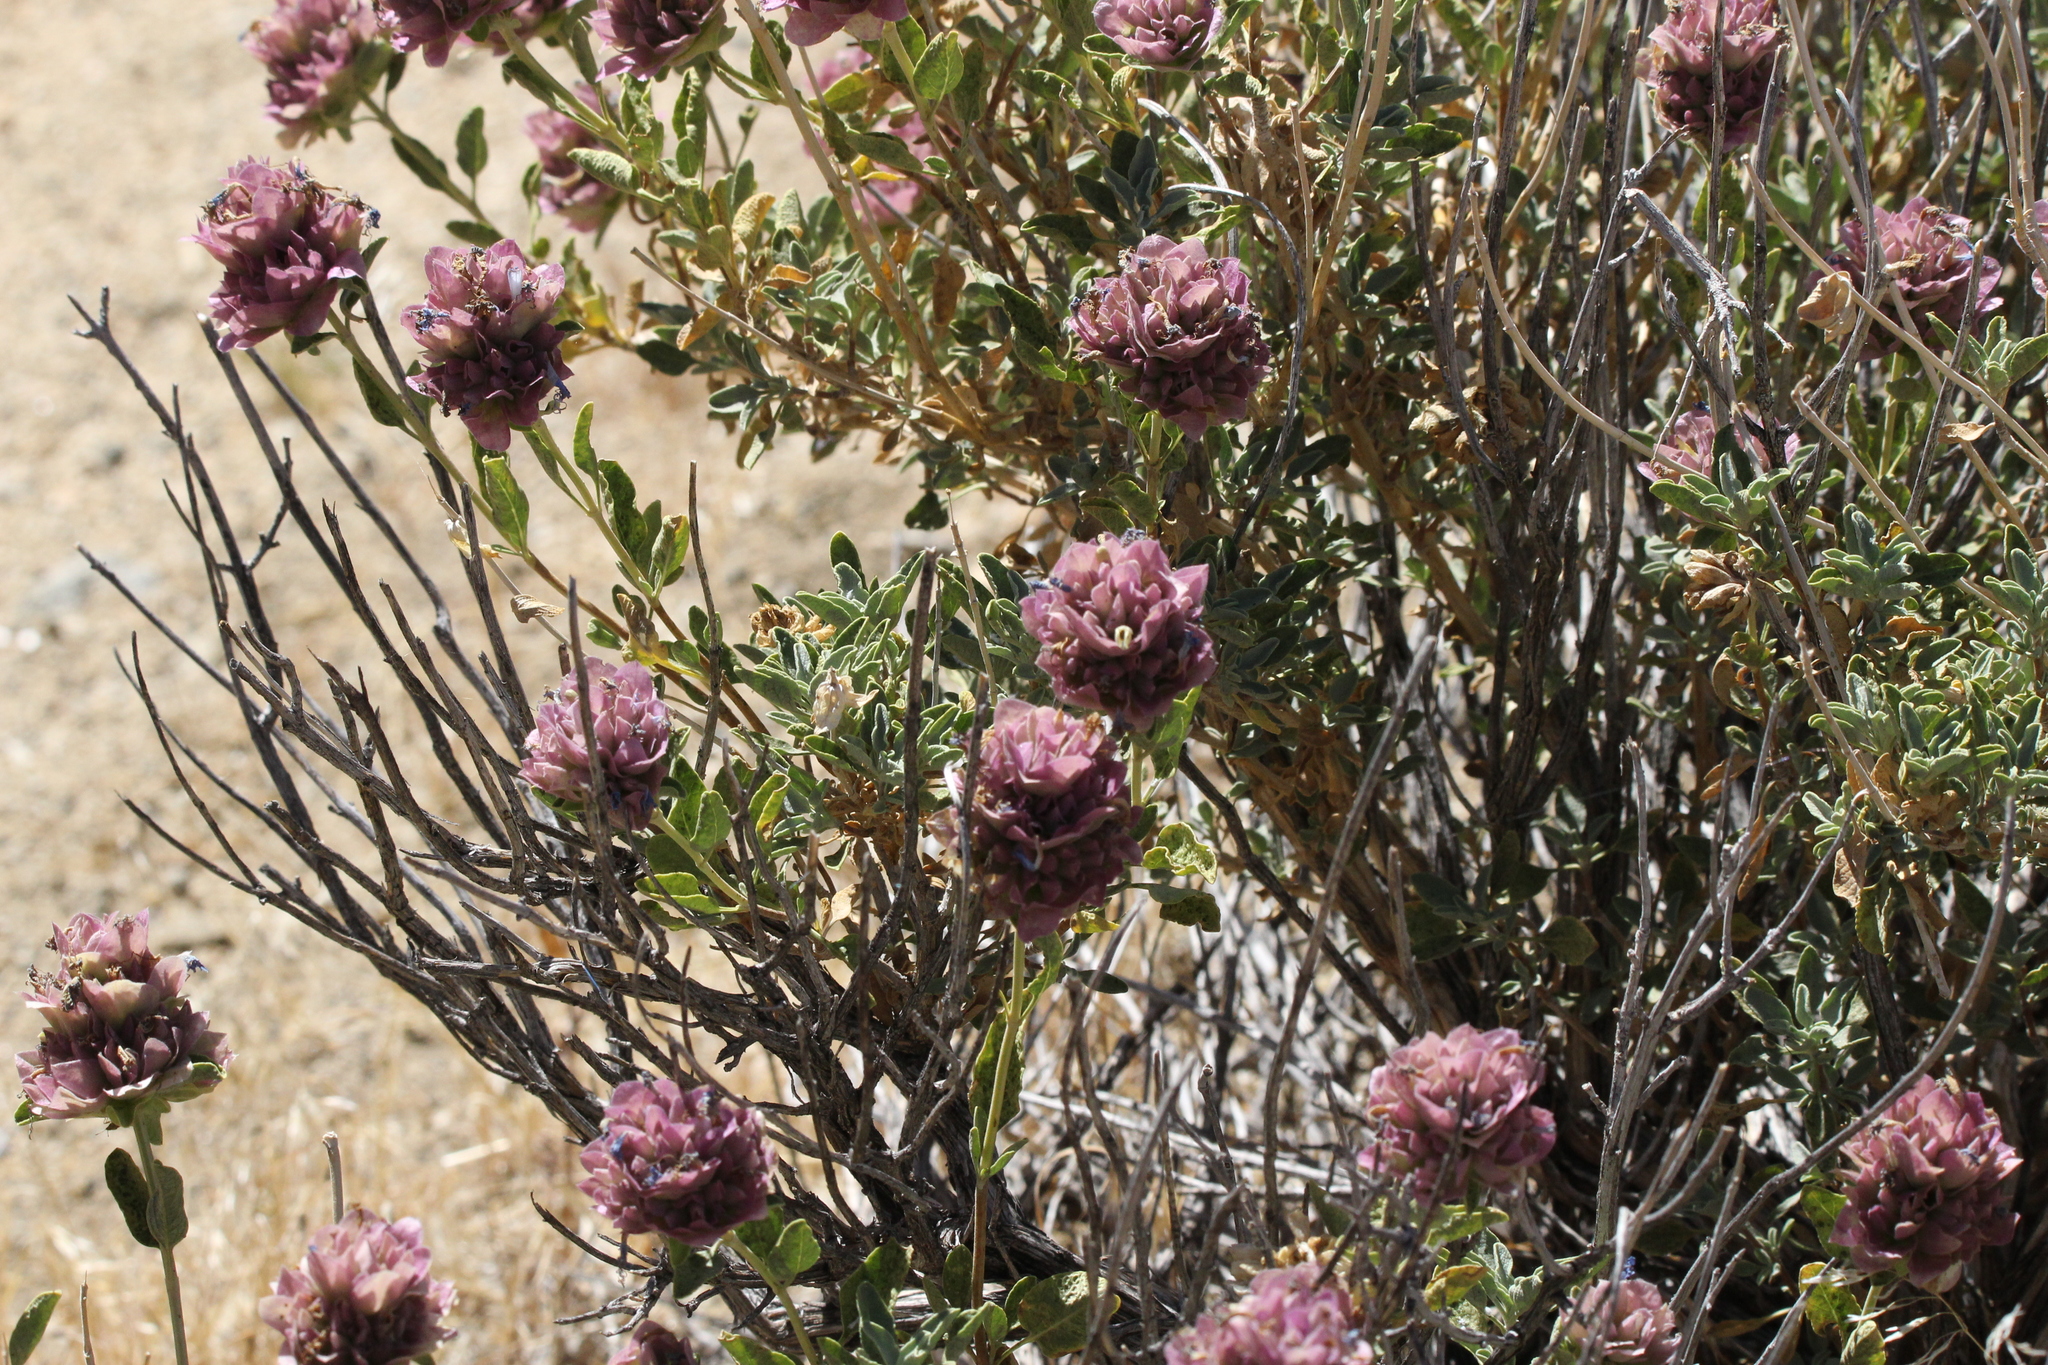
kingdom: Plantae
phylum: Tracheophyta
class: Magnoliopsida
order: Lamiales
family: Lamiaceae
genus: Salvia
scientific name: Salvia dorrii
